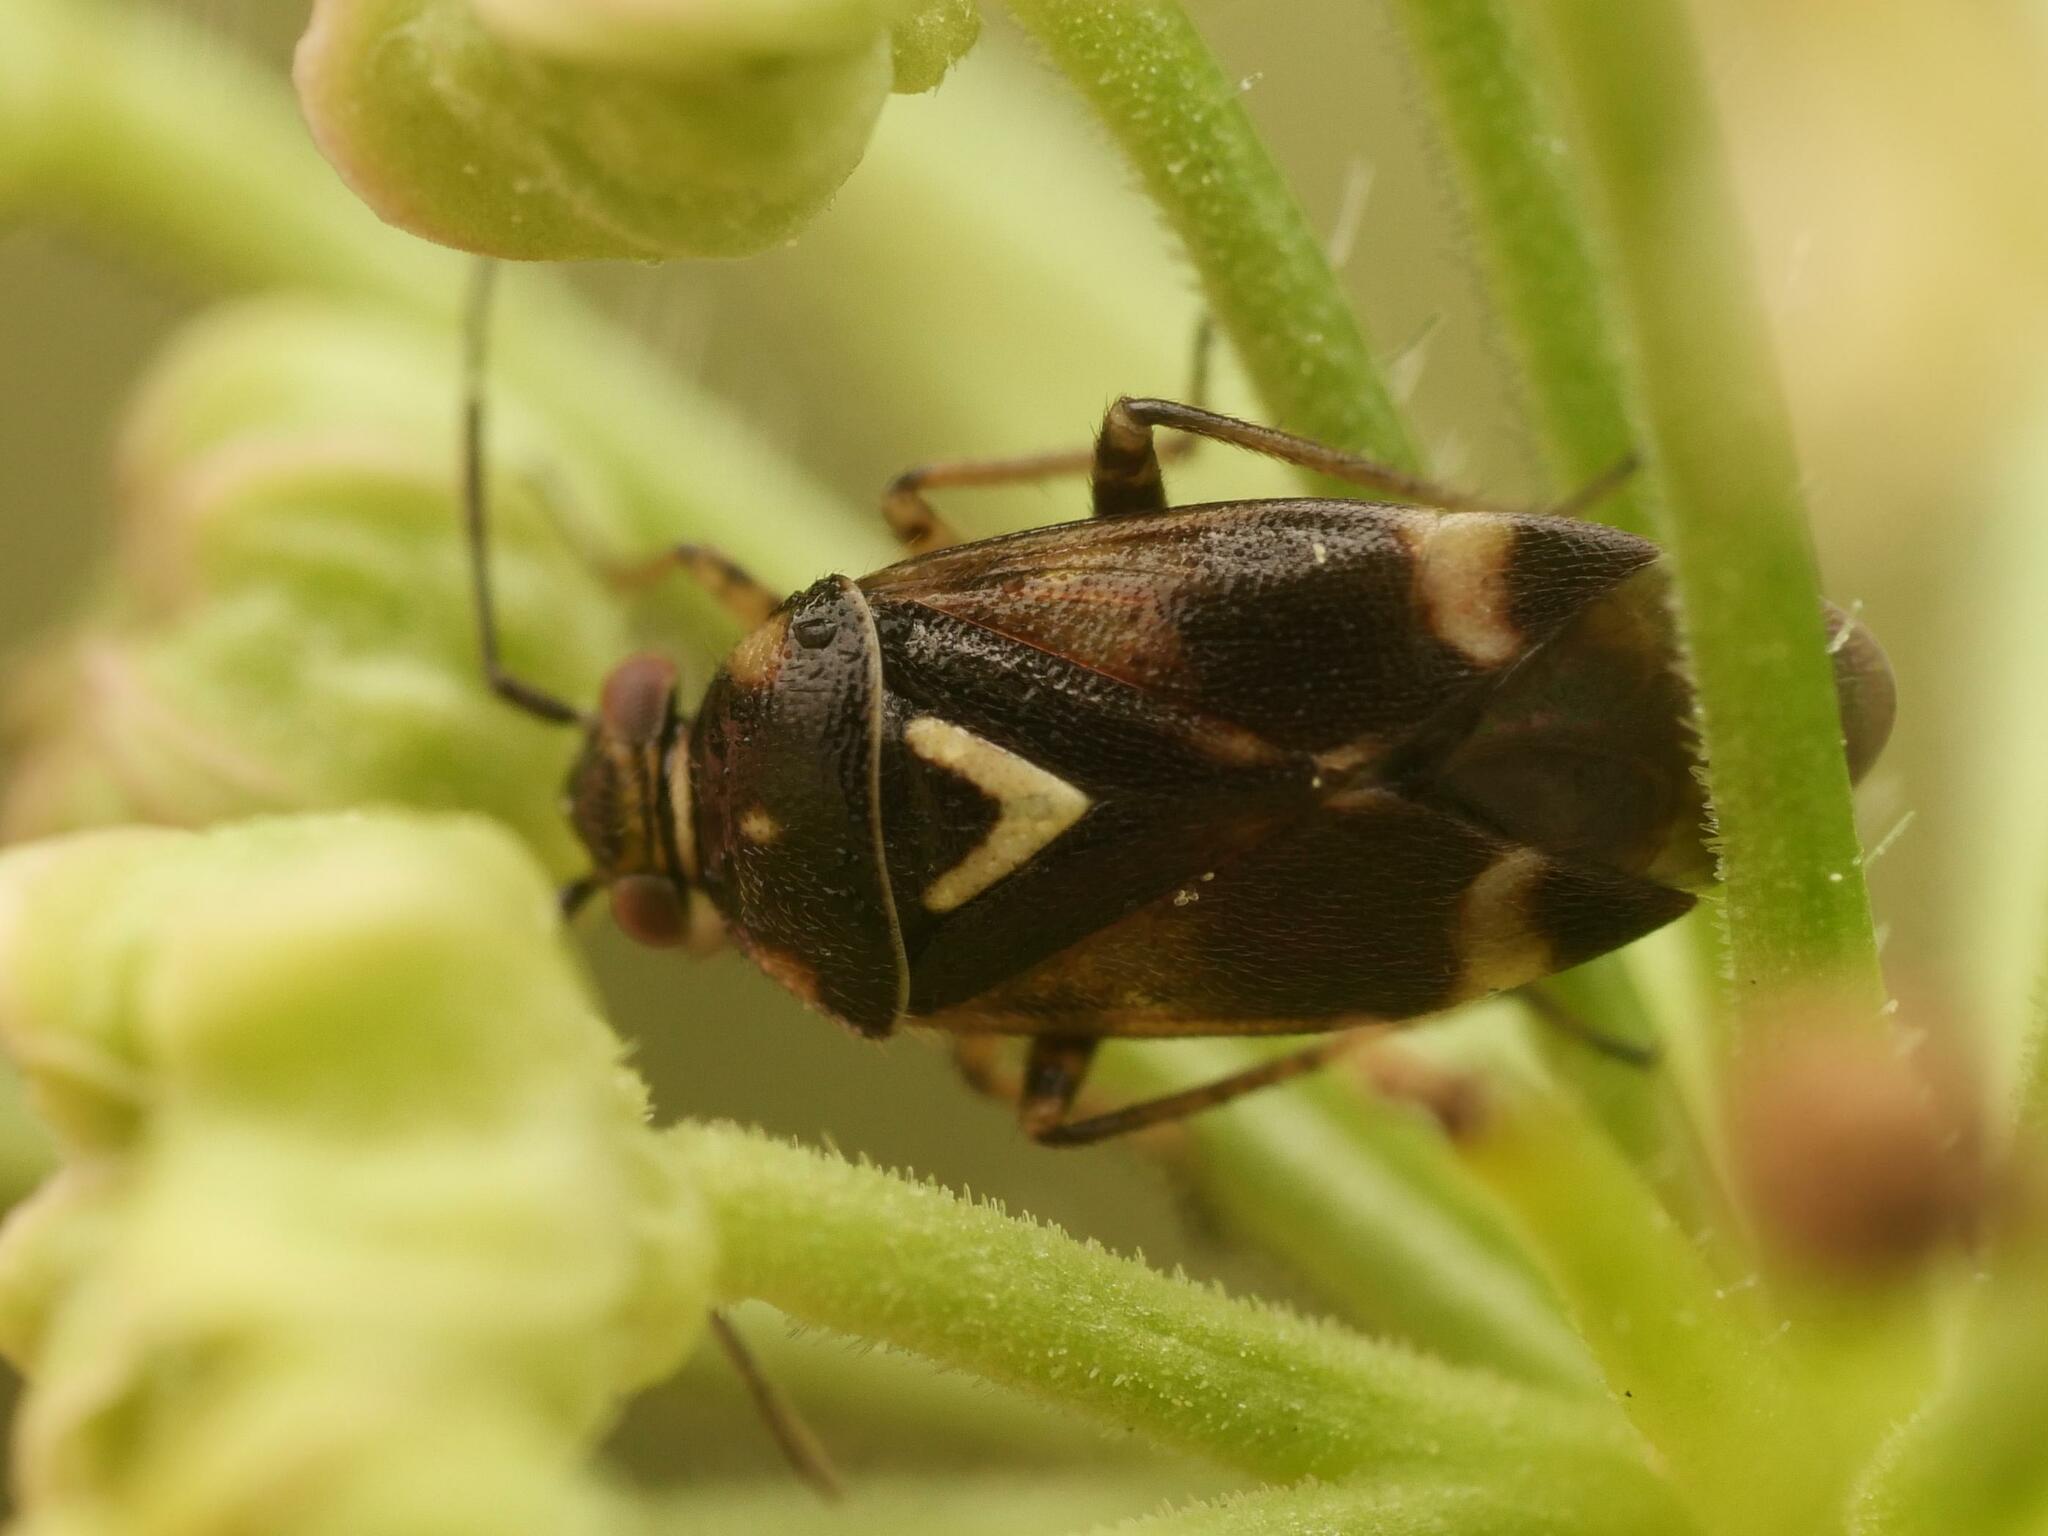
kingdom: Animalia
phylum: Arthropoda
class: Insecta
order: Hemiptera
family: Miridae
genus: Liocoris
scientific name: Liocoris tripustulatus
